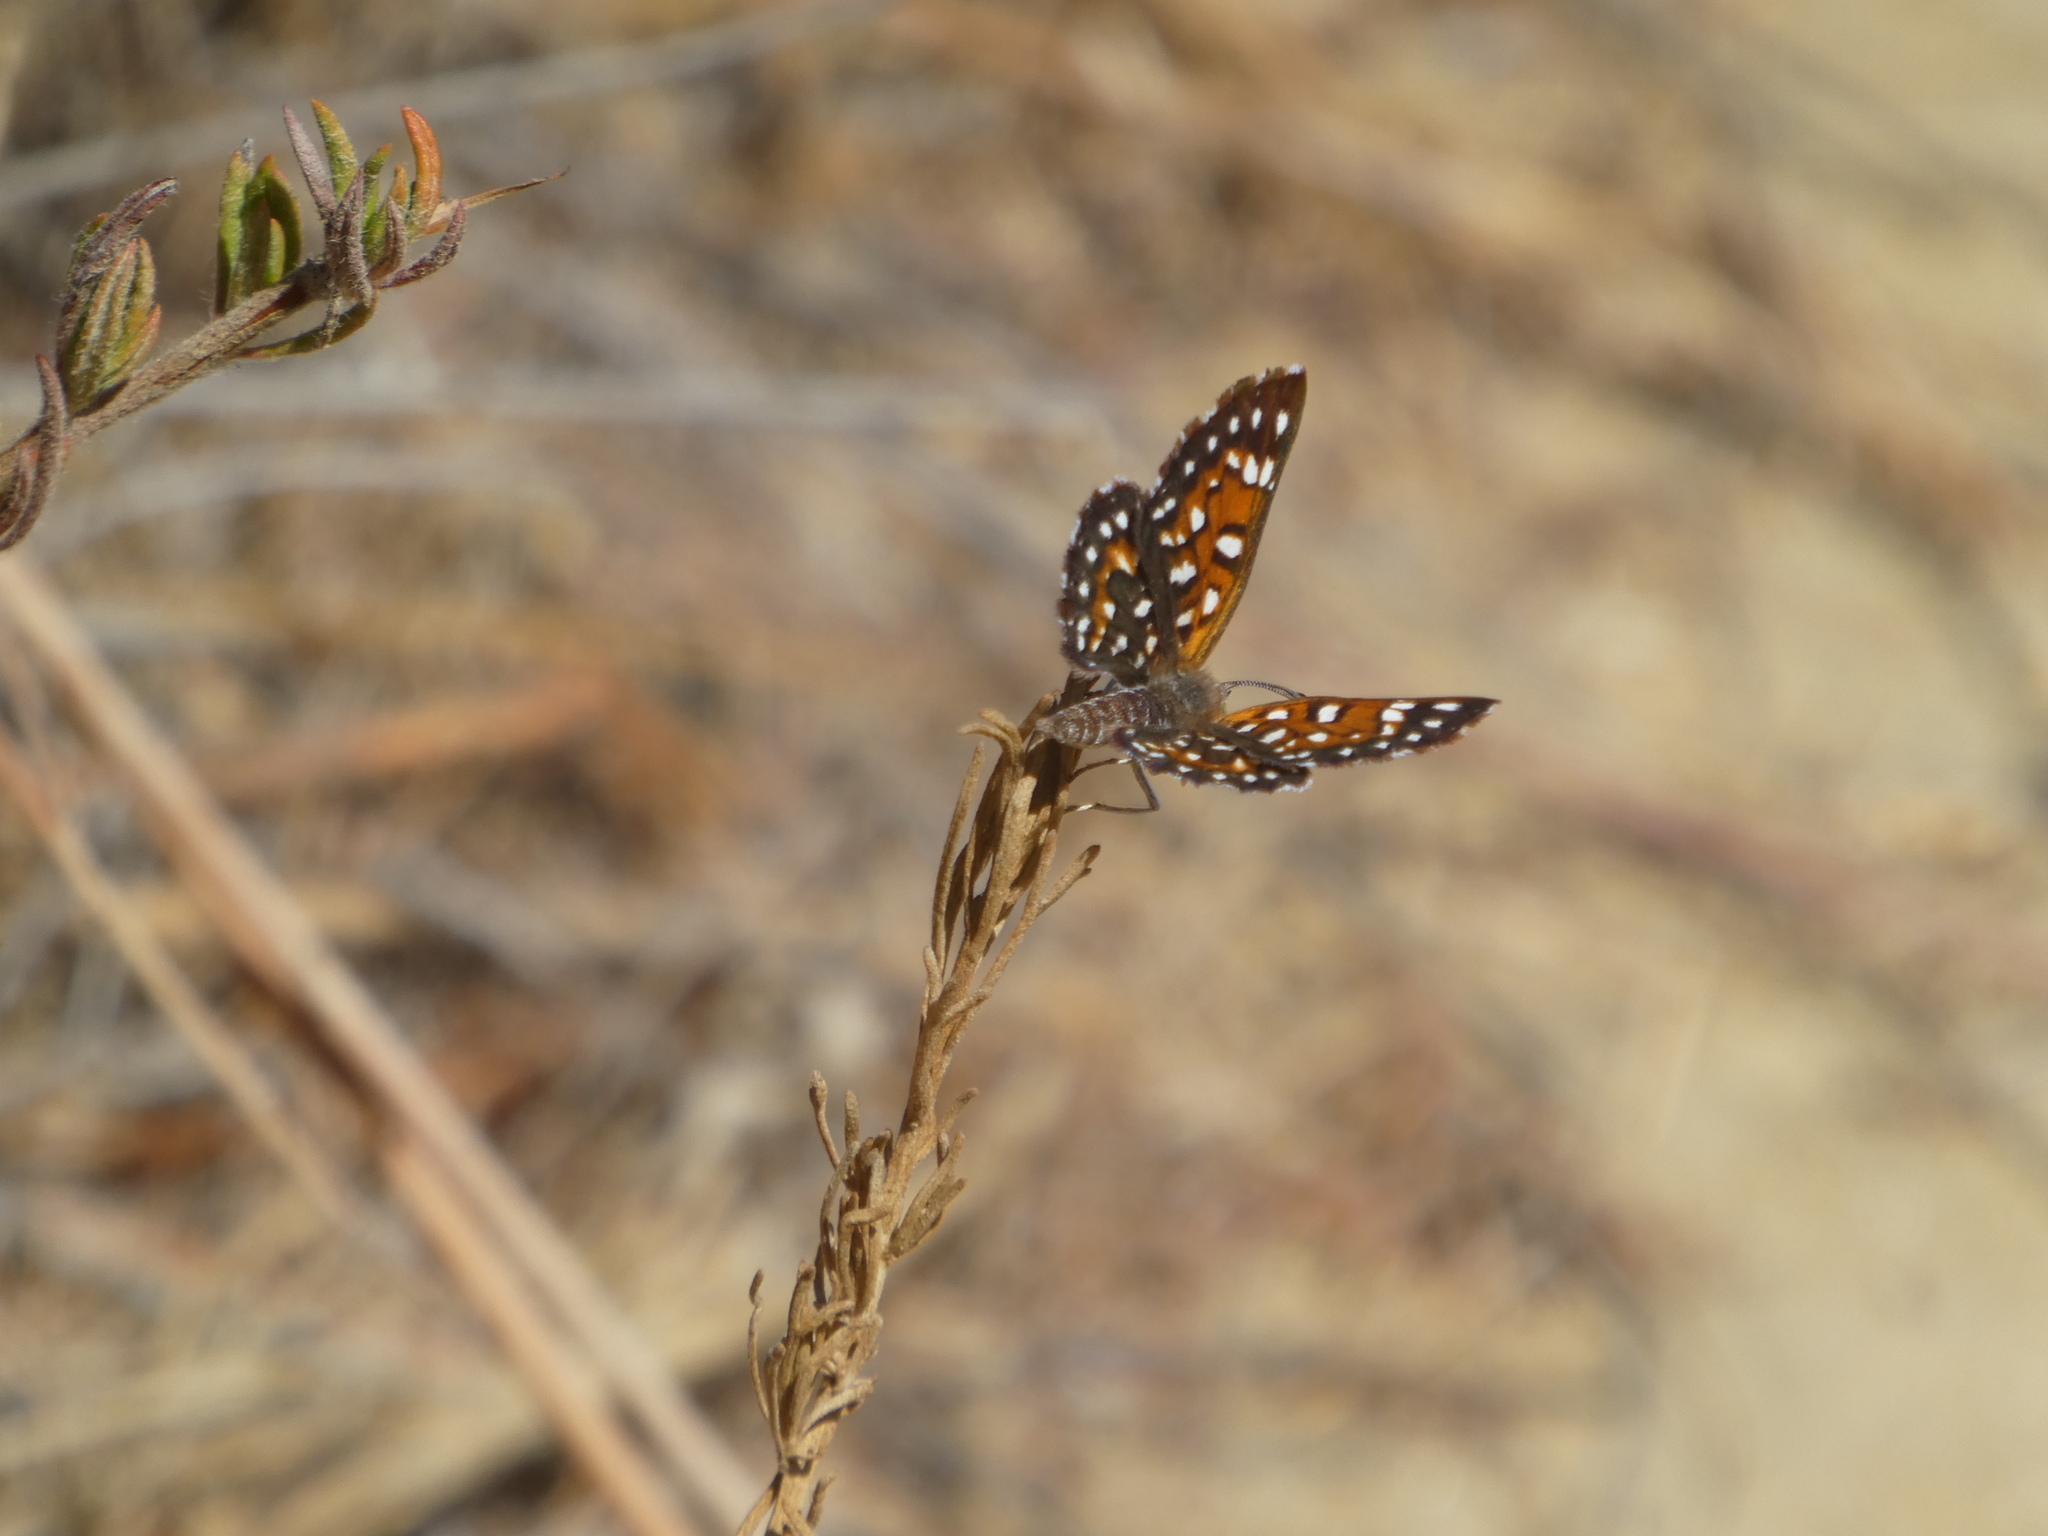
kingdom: Animalia
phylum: Arthropoda
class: Insecta
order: Lepidoptera
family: Riodinidae
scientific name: Riodinidae
